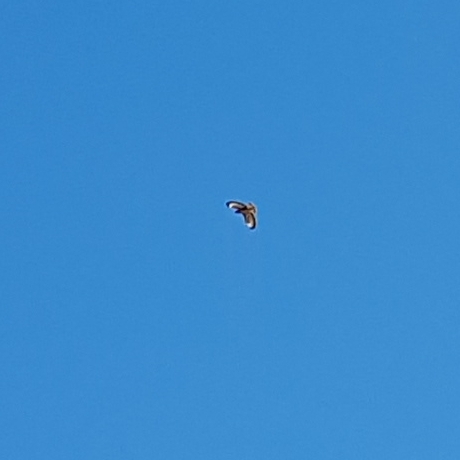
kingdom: Animalia
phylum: Chordata
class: Aves
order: Accipitriformes
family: Accipitridae
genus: Buteo
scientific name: Buteo buteo
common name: Common buzzard
